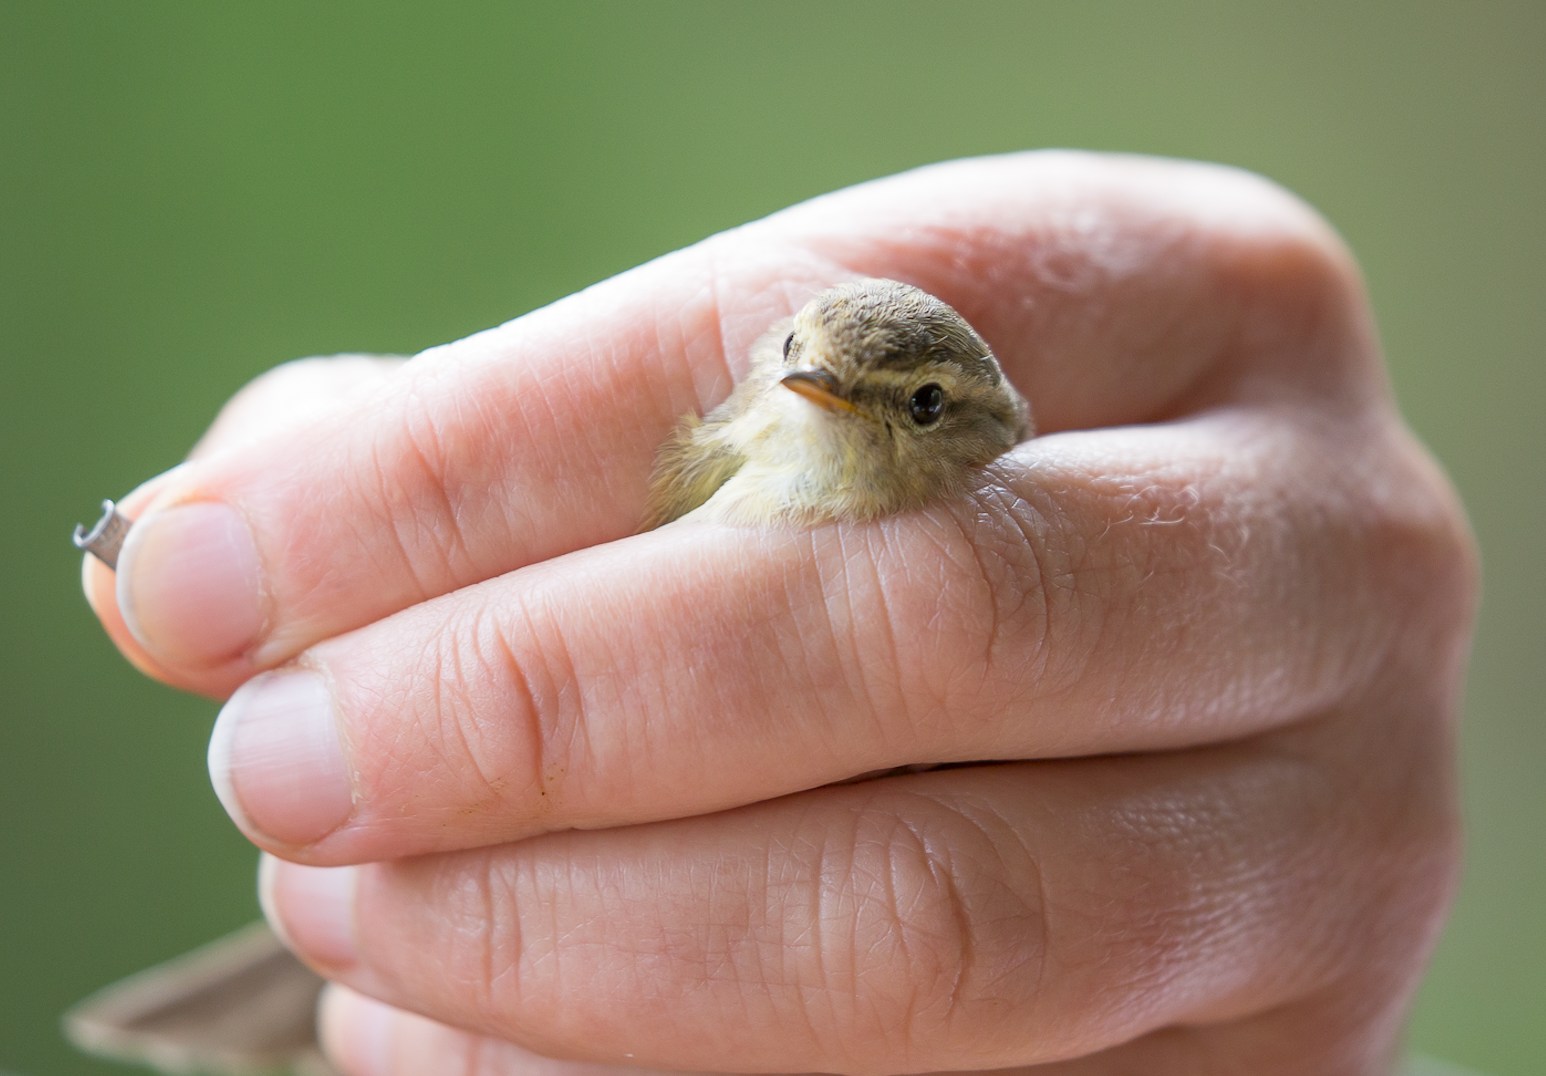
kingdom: Animalia
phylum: Chordata
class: Aves
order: Passeriformes
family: Phylloscopidae
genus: Phylloscopus
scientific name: Phylloscopus collybita
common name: Common chiffchaff
